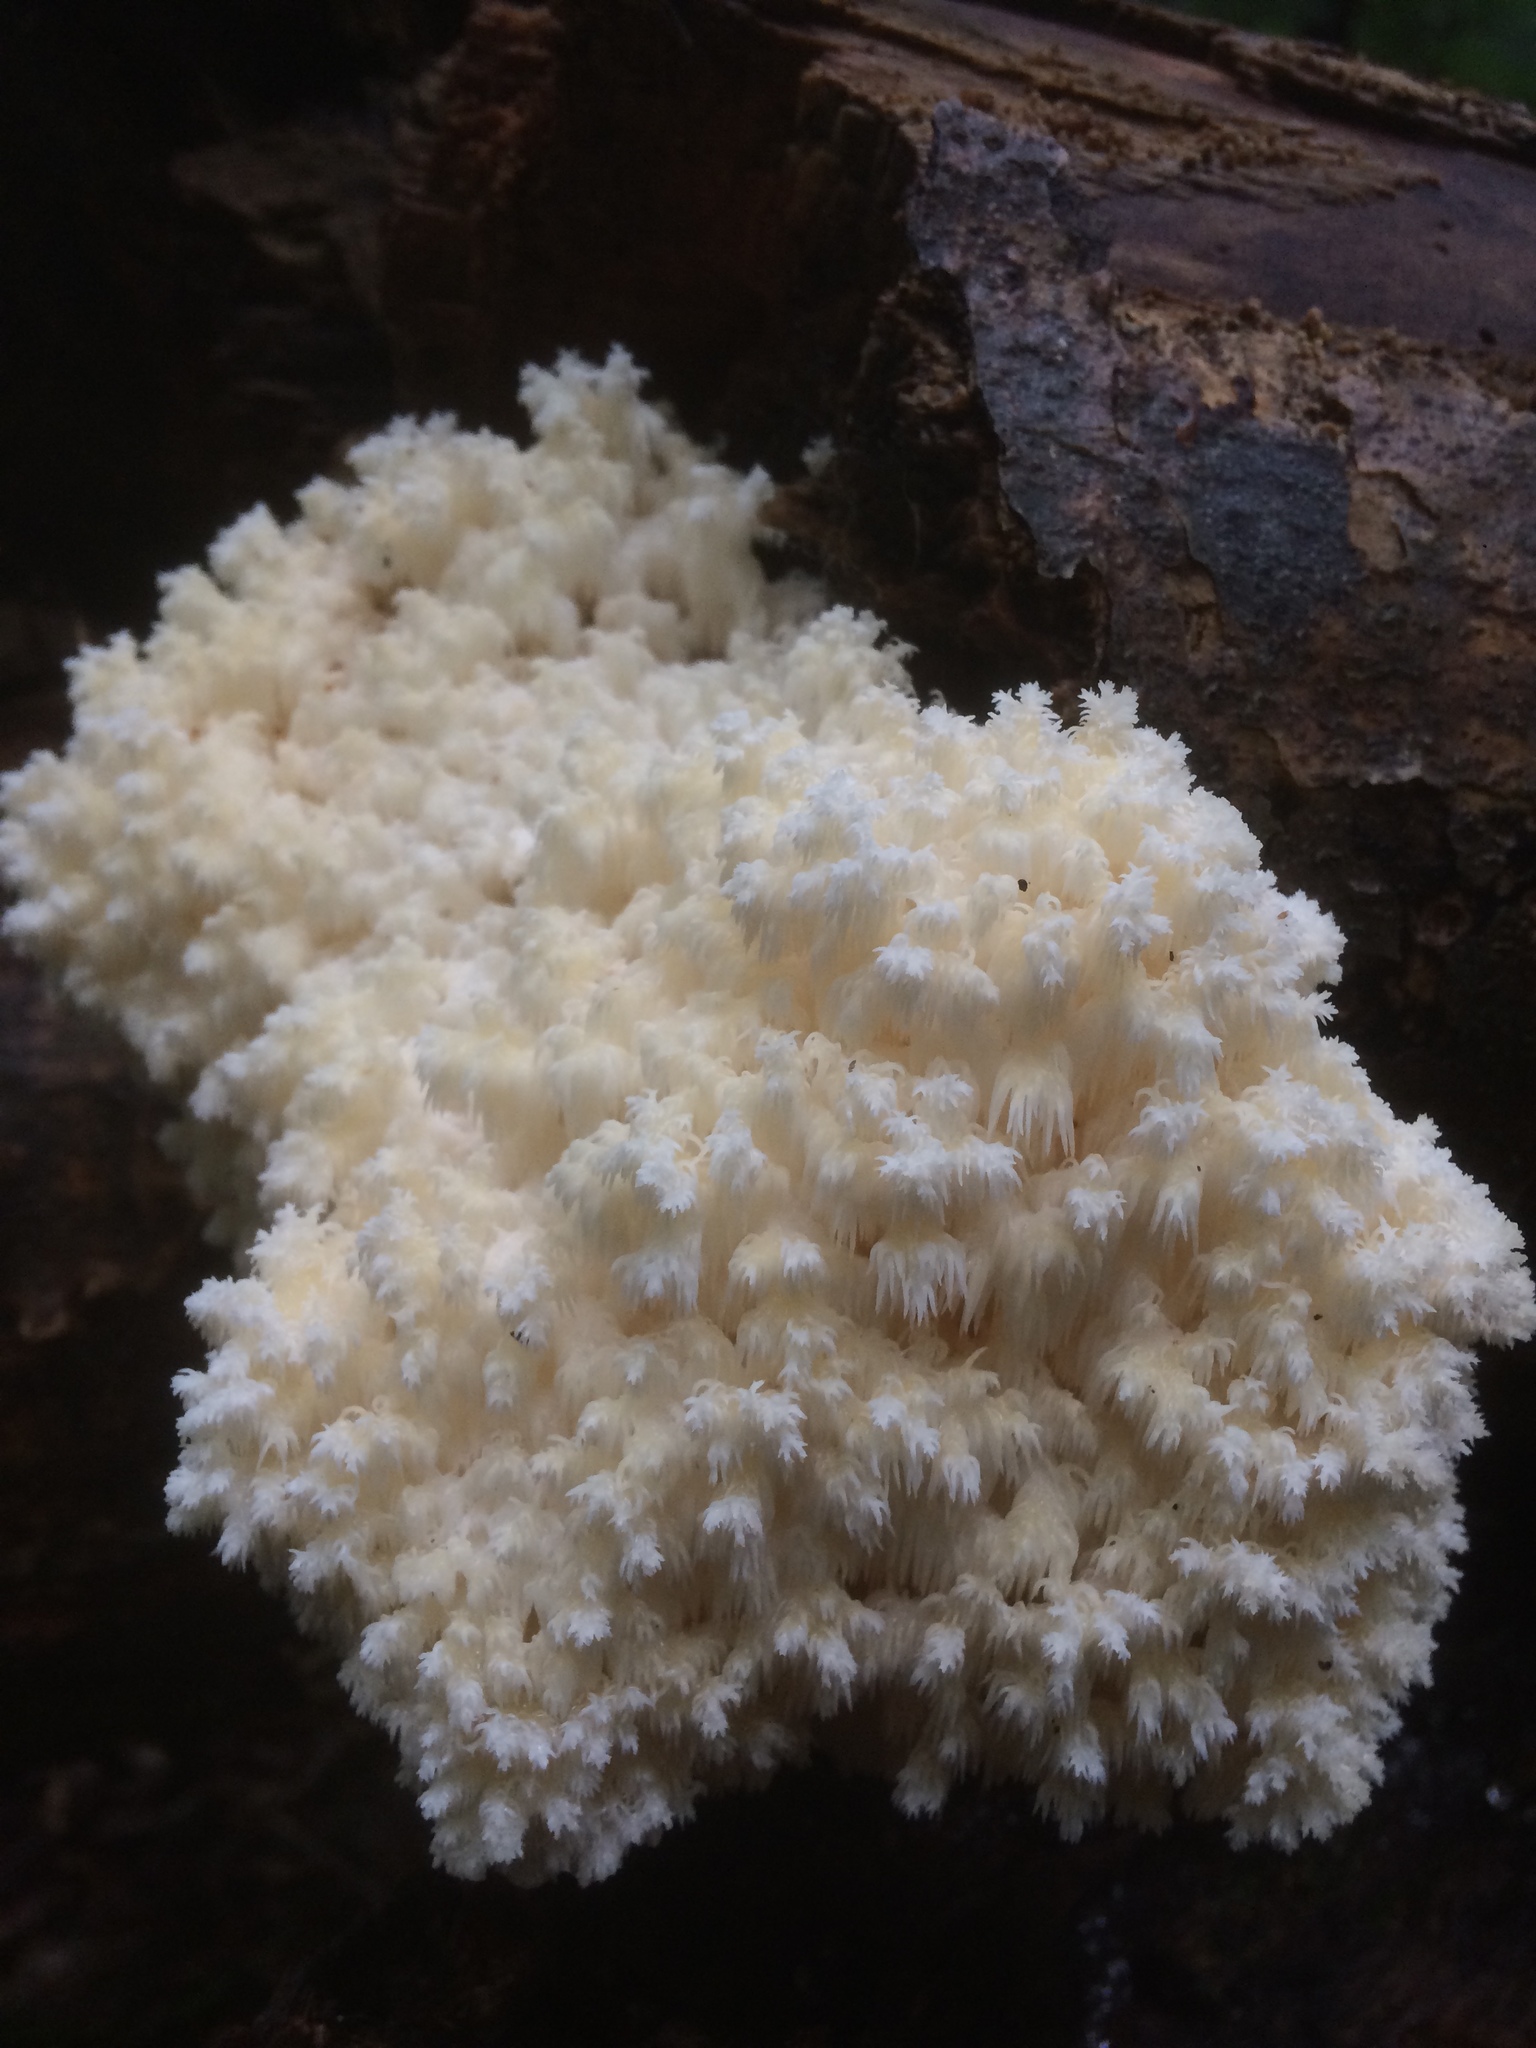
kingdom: Fungi
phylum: Basidiomycota
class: Agaricomycetes
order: Russulales
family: Hericiaceae
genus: Hericium
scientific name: Hericium coralloides
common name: Coral tooth
